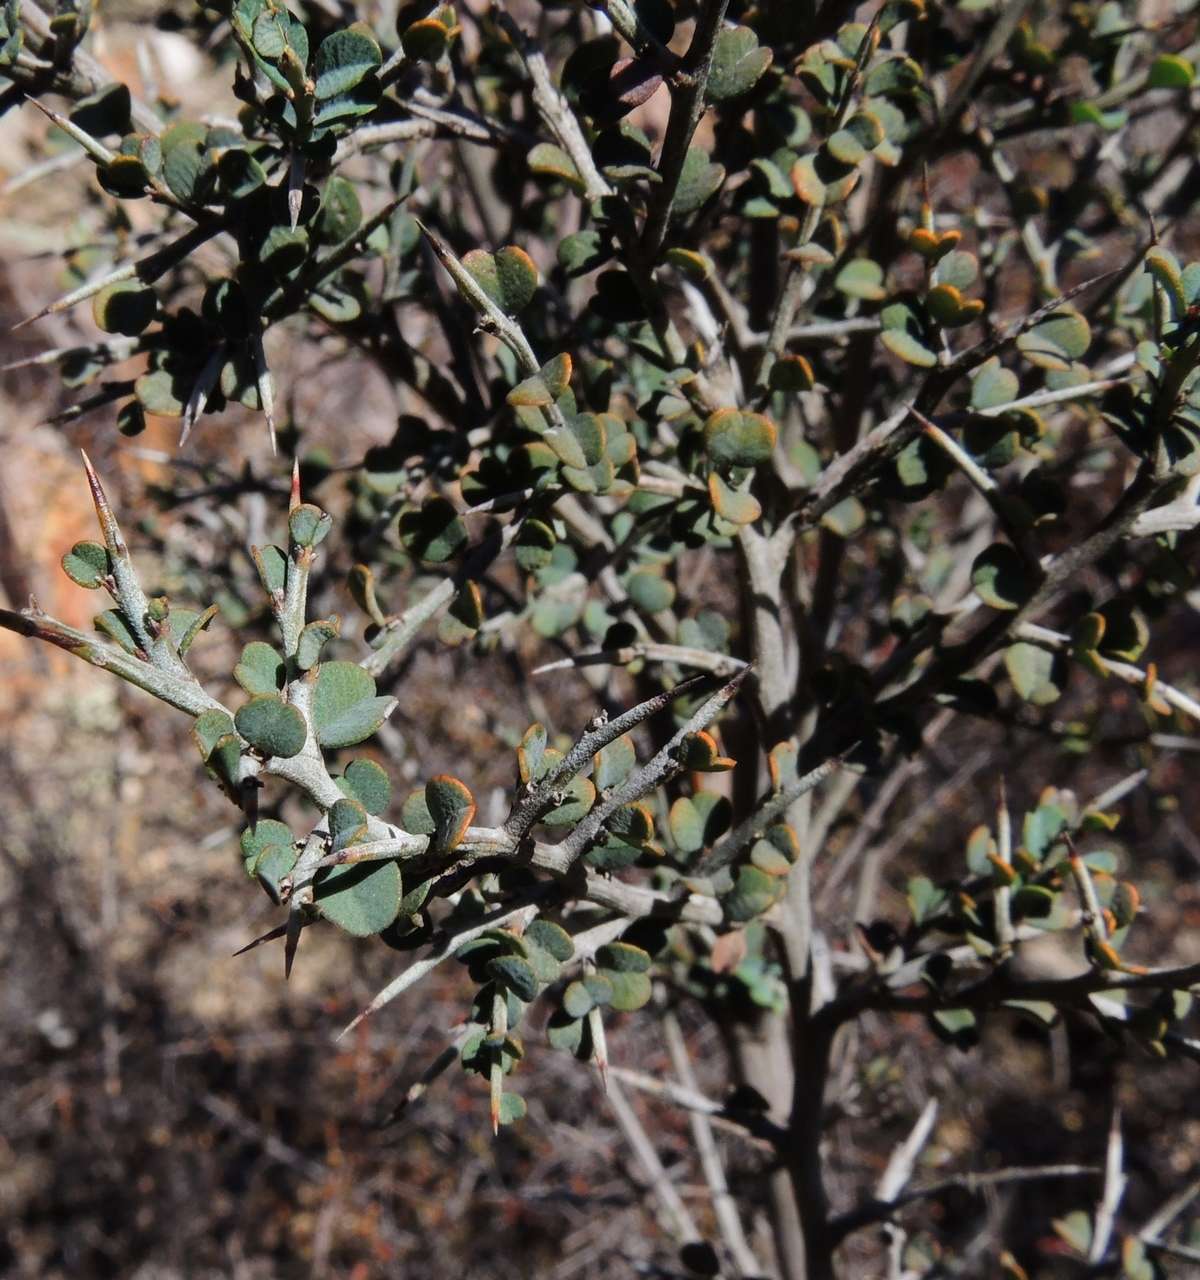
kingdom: Plantae
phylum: Tracheophyta
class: Magnoliopsida
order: Fabales
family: Fabaceae
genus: Bossiaea
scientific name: Bossiaea obcordata
